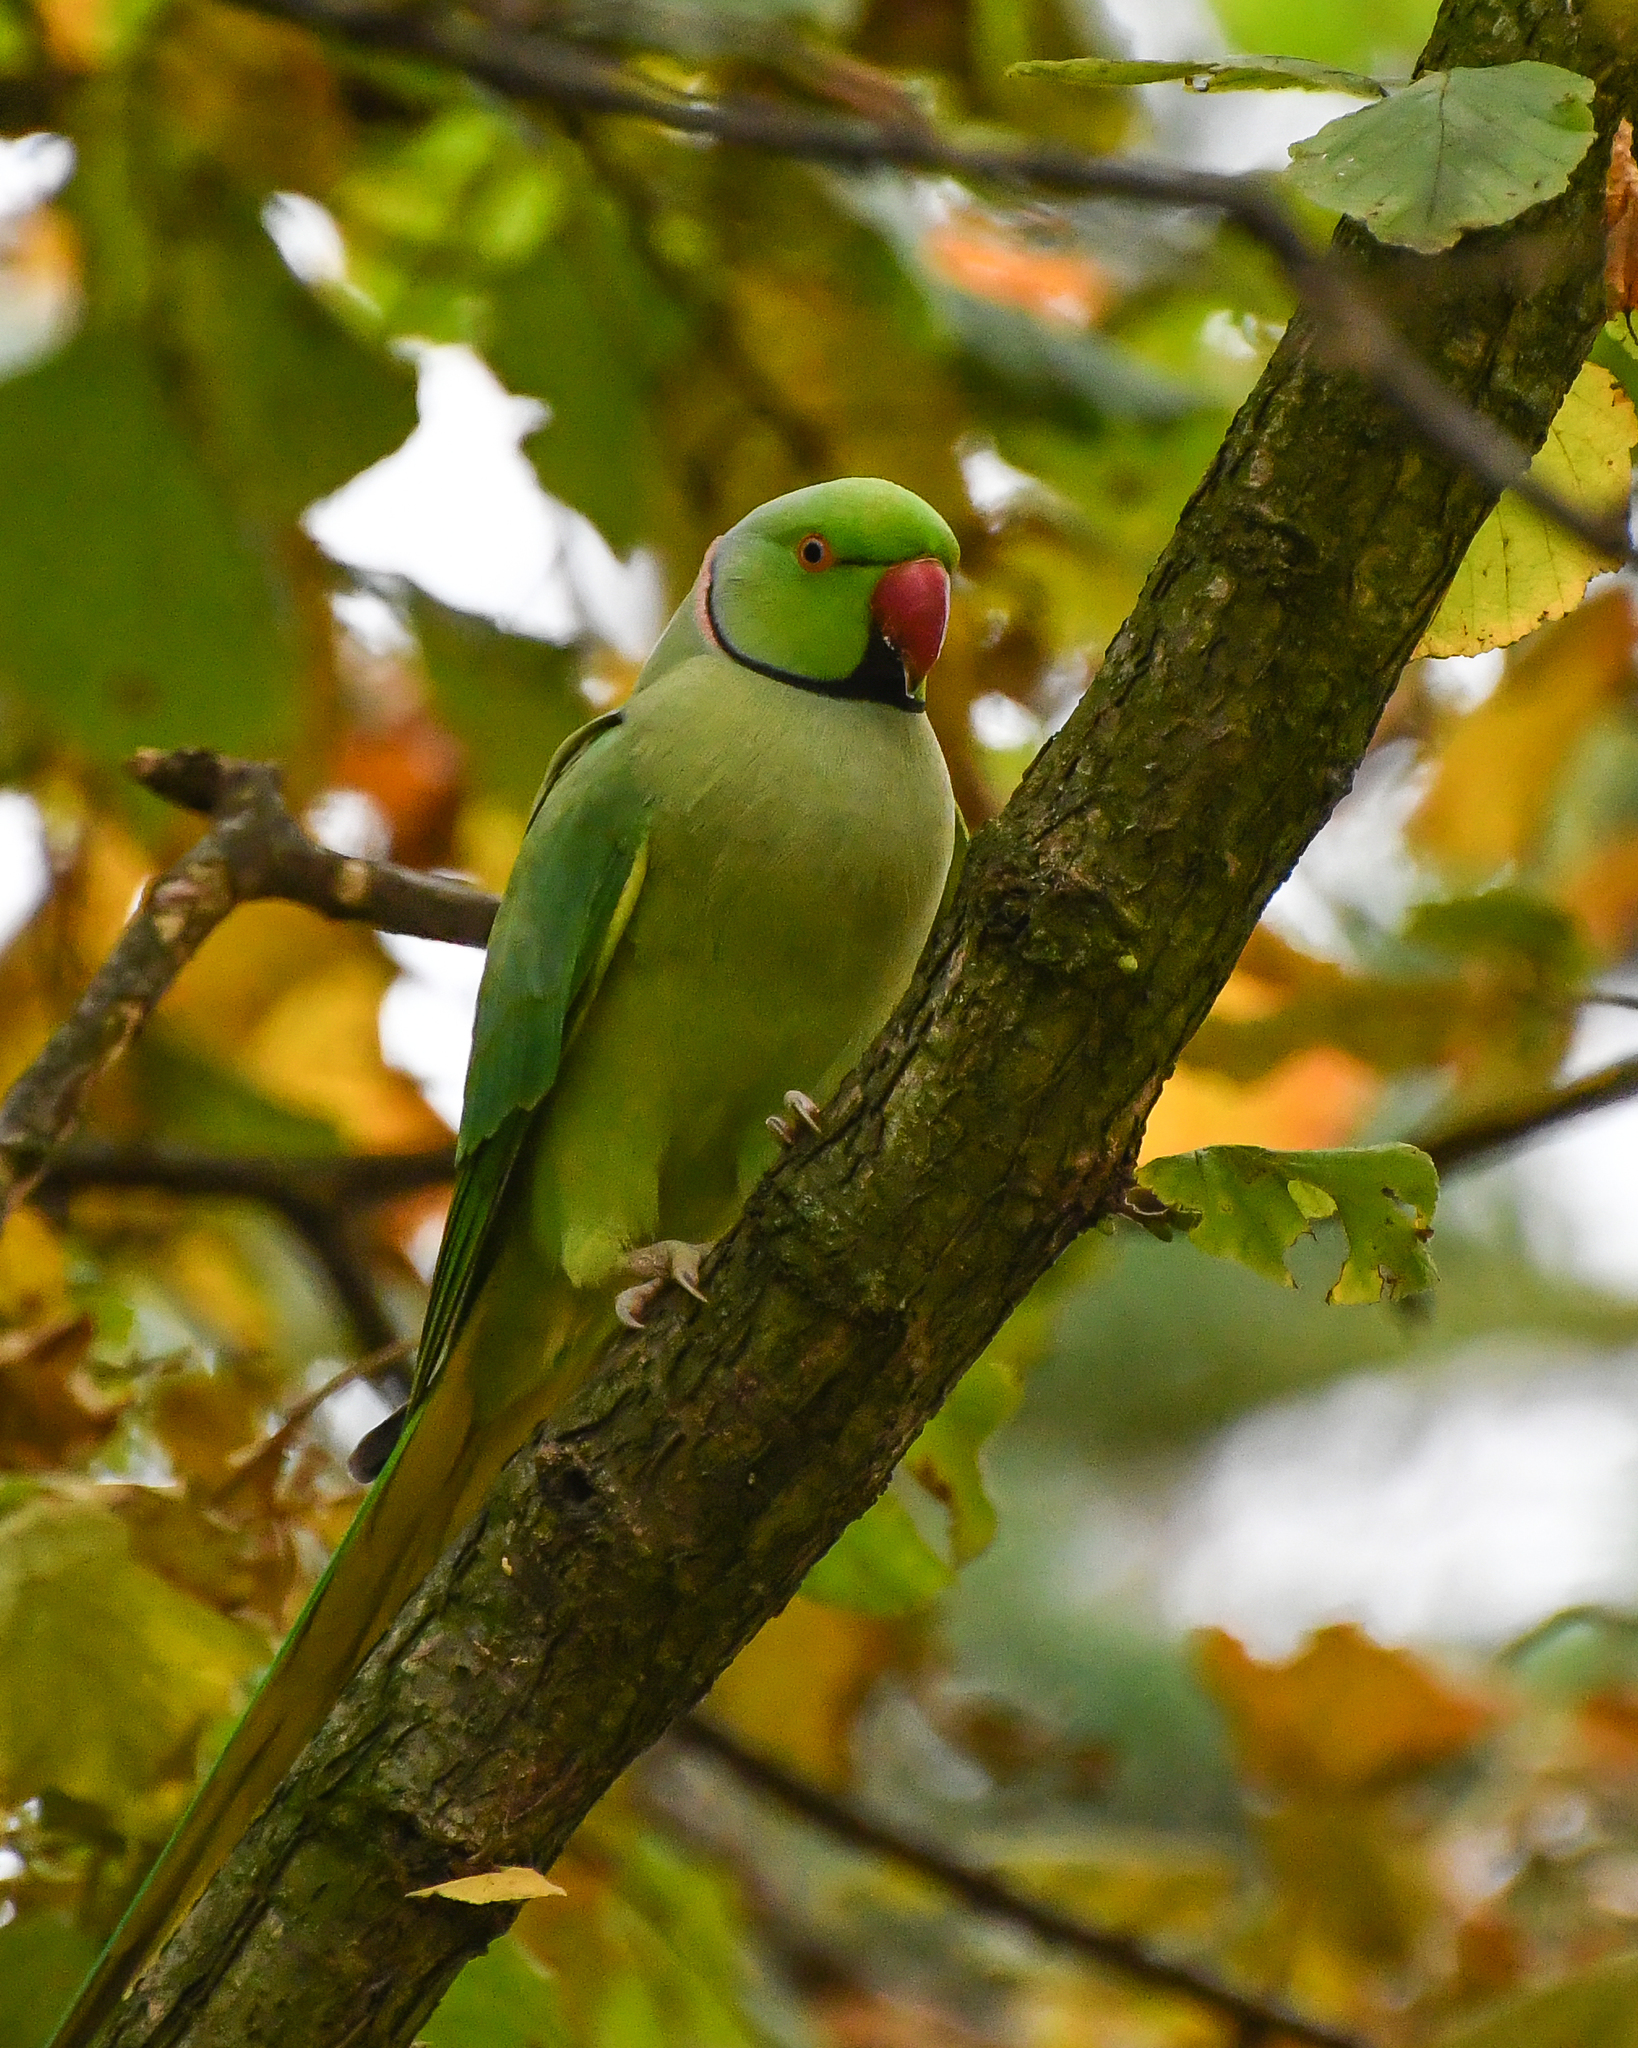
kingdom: Animalia
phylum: Chordata
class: Aves
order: Psittaciformes
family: Psittacidae
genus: Psittacula
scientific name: Psittacula krameri
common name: Rose-ringed parakeet
